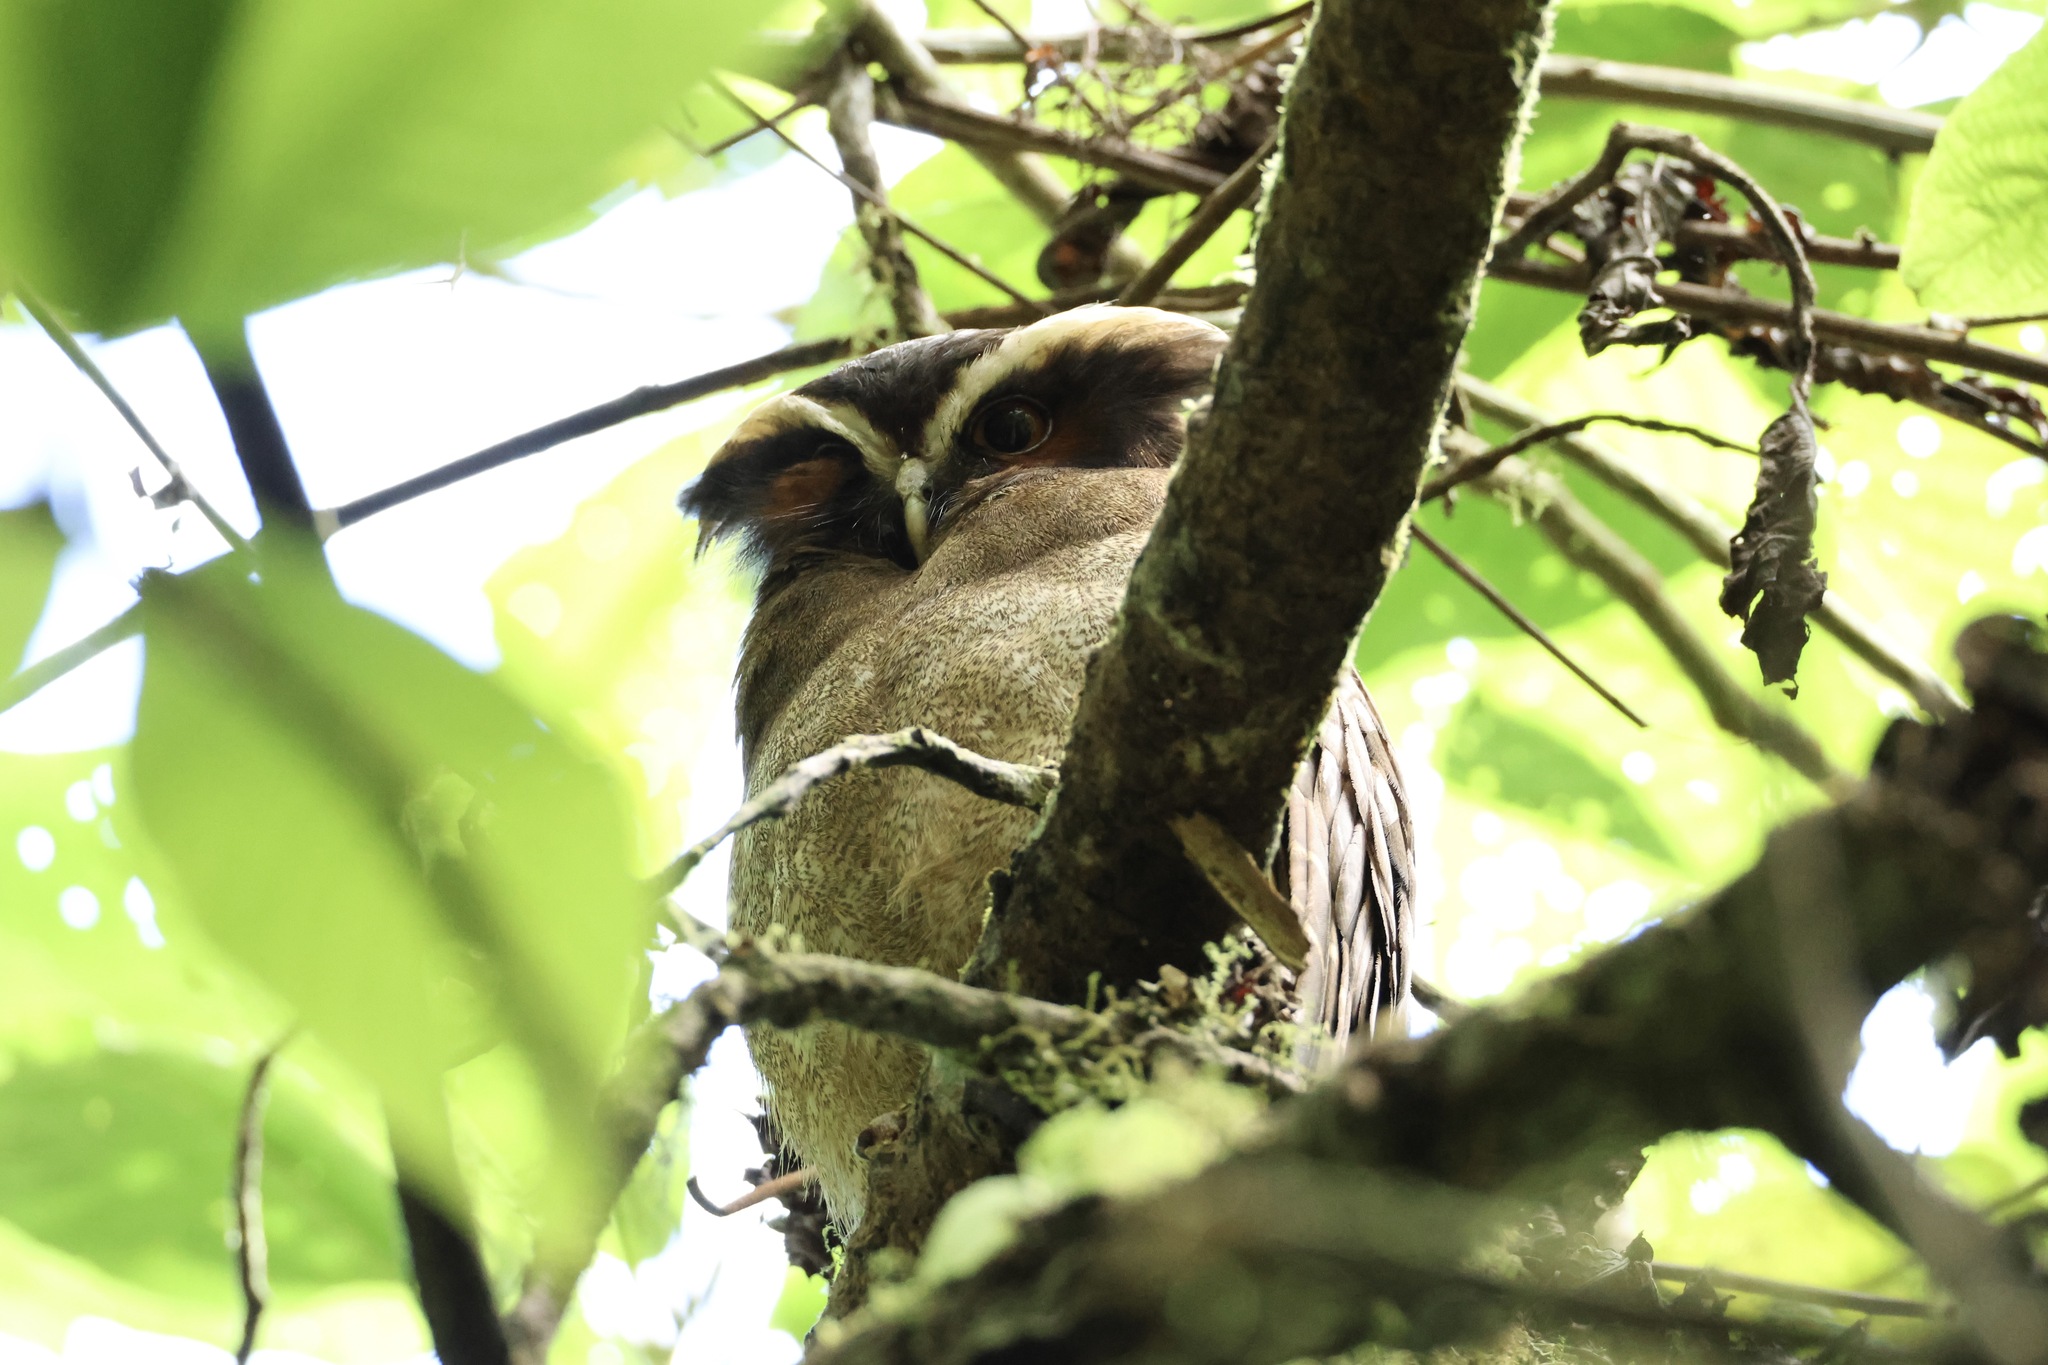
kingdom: Animalia
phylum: Chordata
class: Aves
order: Strigiformes
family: Strigidae
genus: Lophostrix
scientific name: Lophostrix cristata
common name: Crested owl
